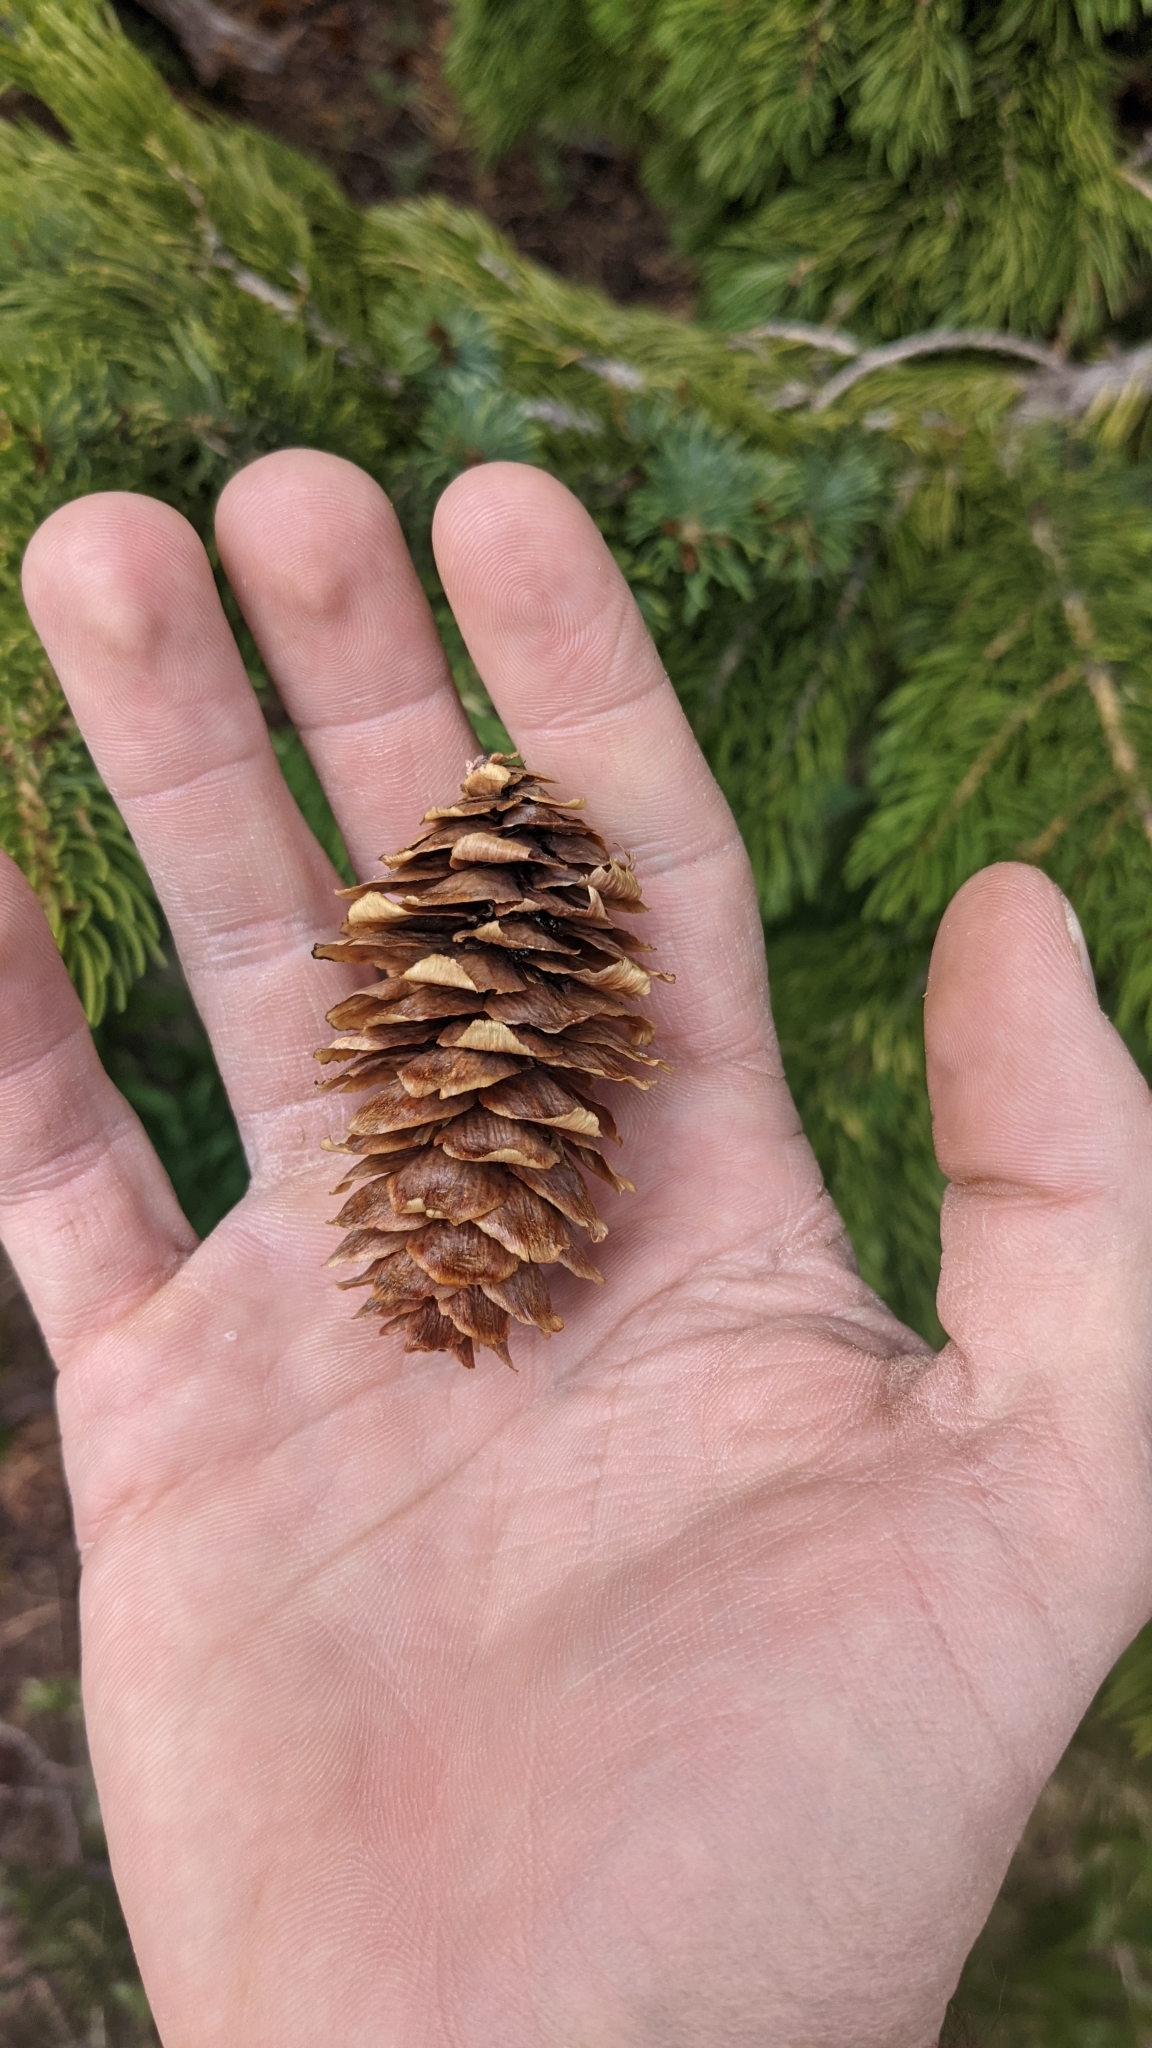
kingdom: Plantae
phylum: Tracheophyta
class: Pinopsida
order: Pinales
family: Pinaceae
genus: Picea
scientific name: Picea engelmannii
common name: Engelmann spruce
